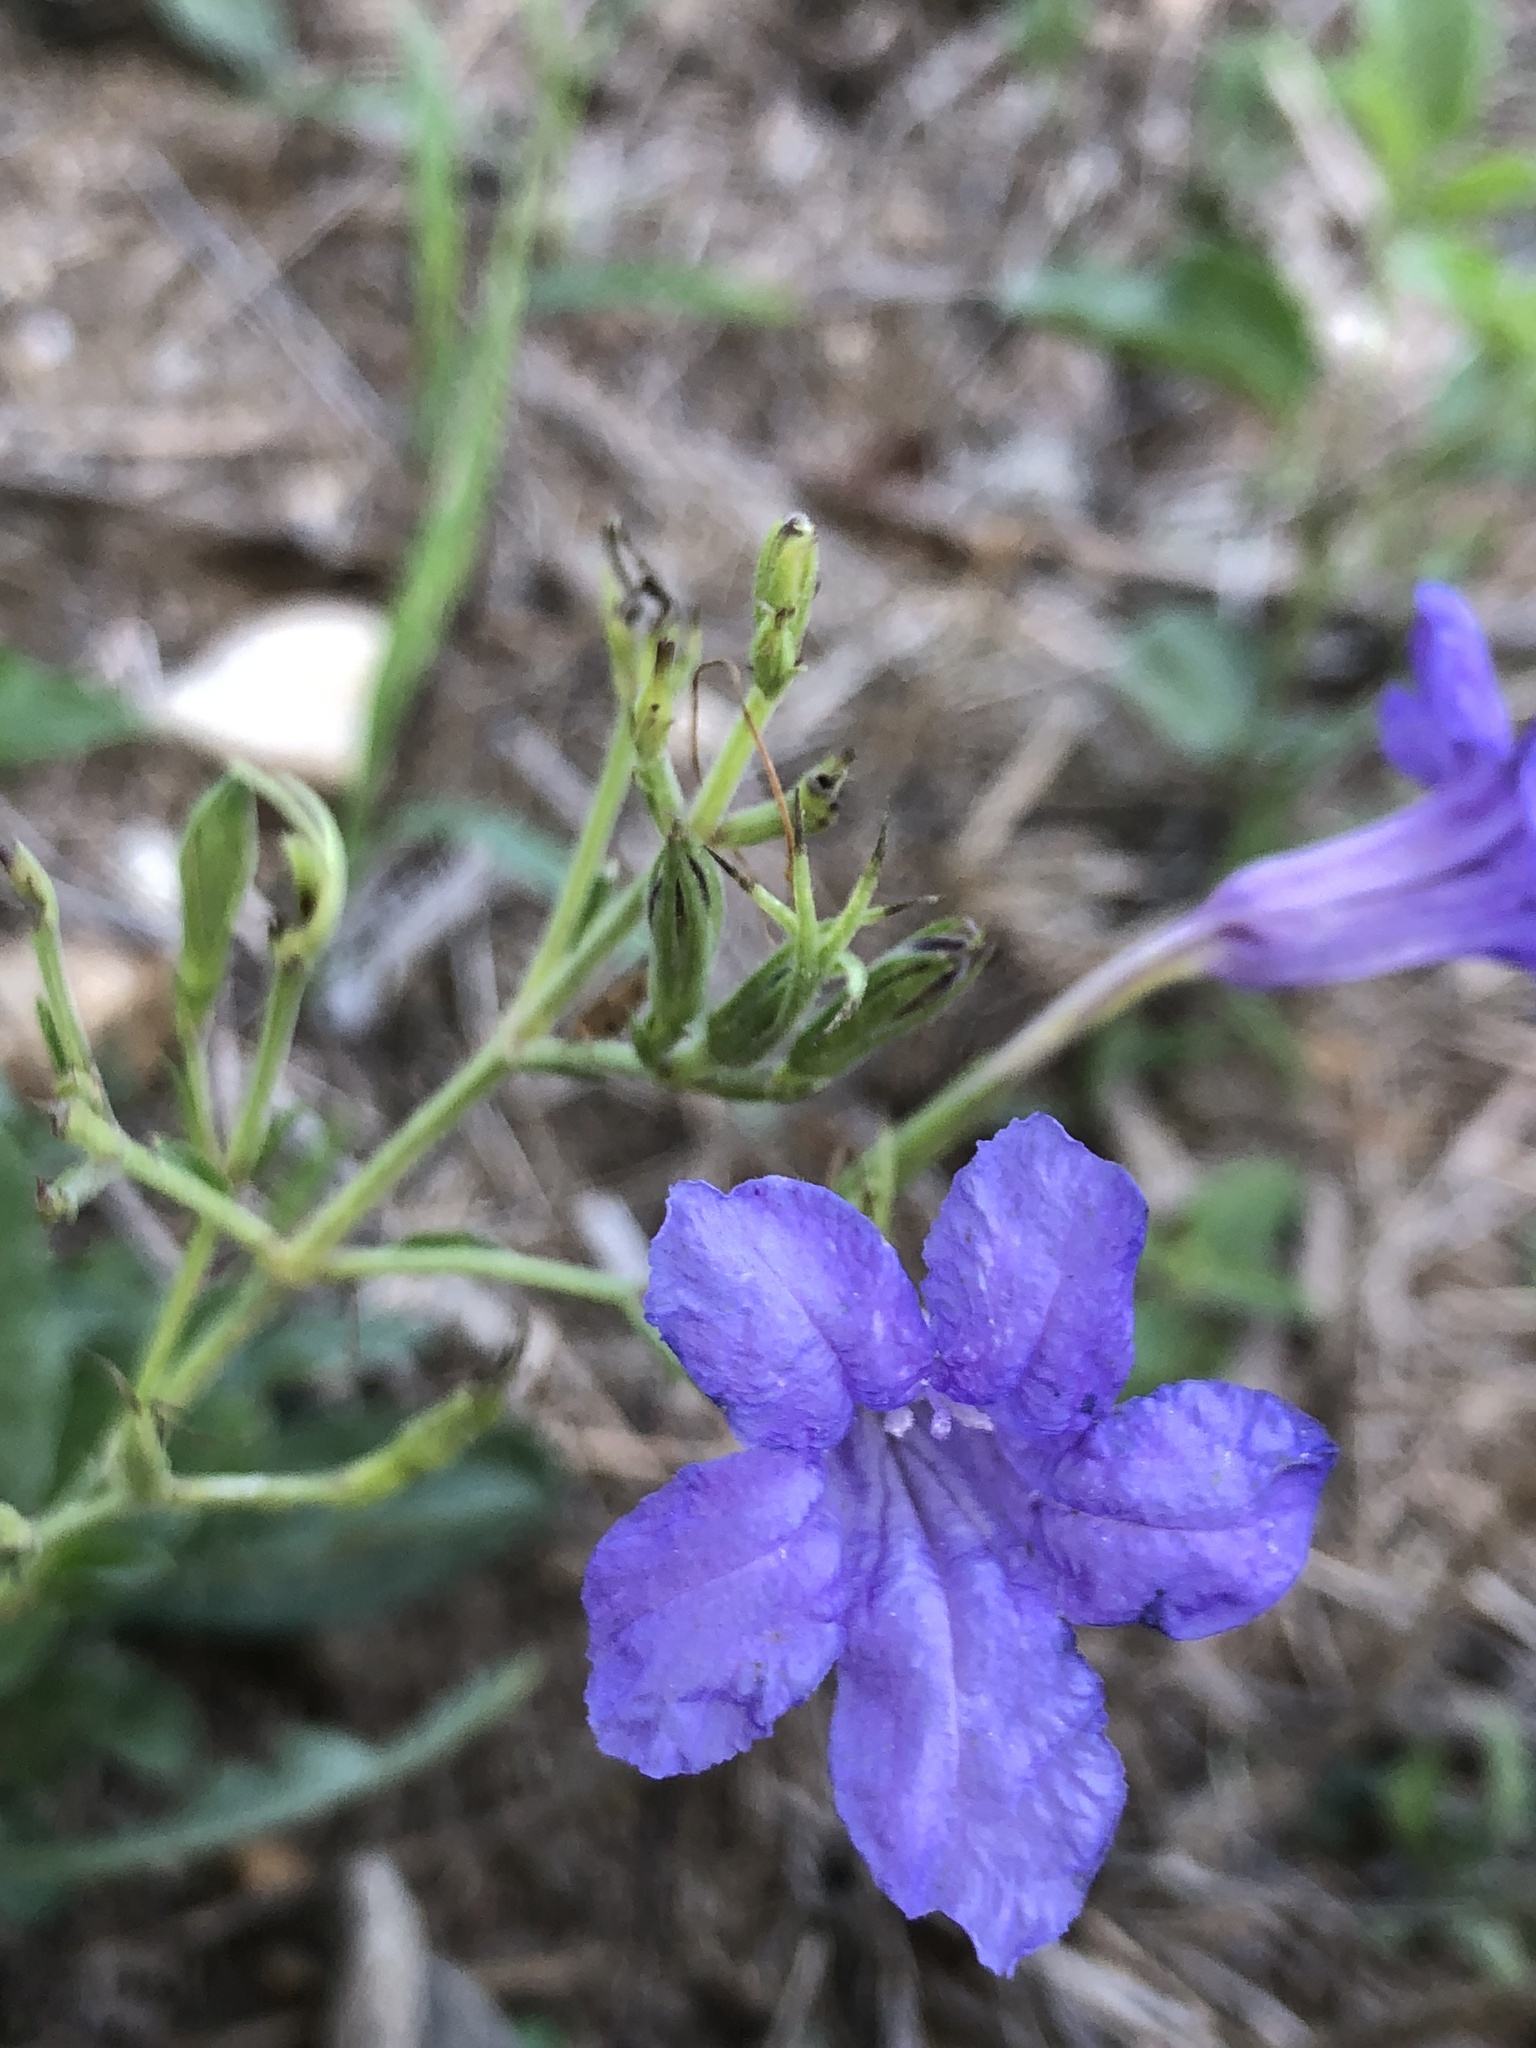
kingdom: Plantae
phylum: Tracheophyta
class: Magnoliopsida
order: Lamiales
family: Acanthaceae
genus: Ruellia
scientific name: Ruellia ciliatiflora
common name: Hairyflower wild petunia
